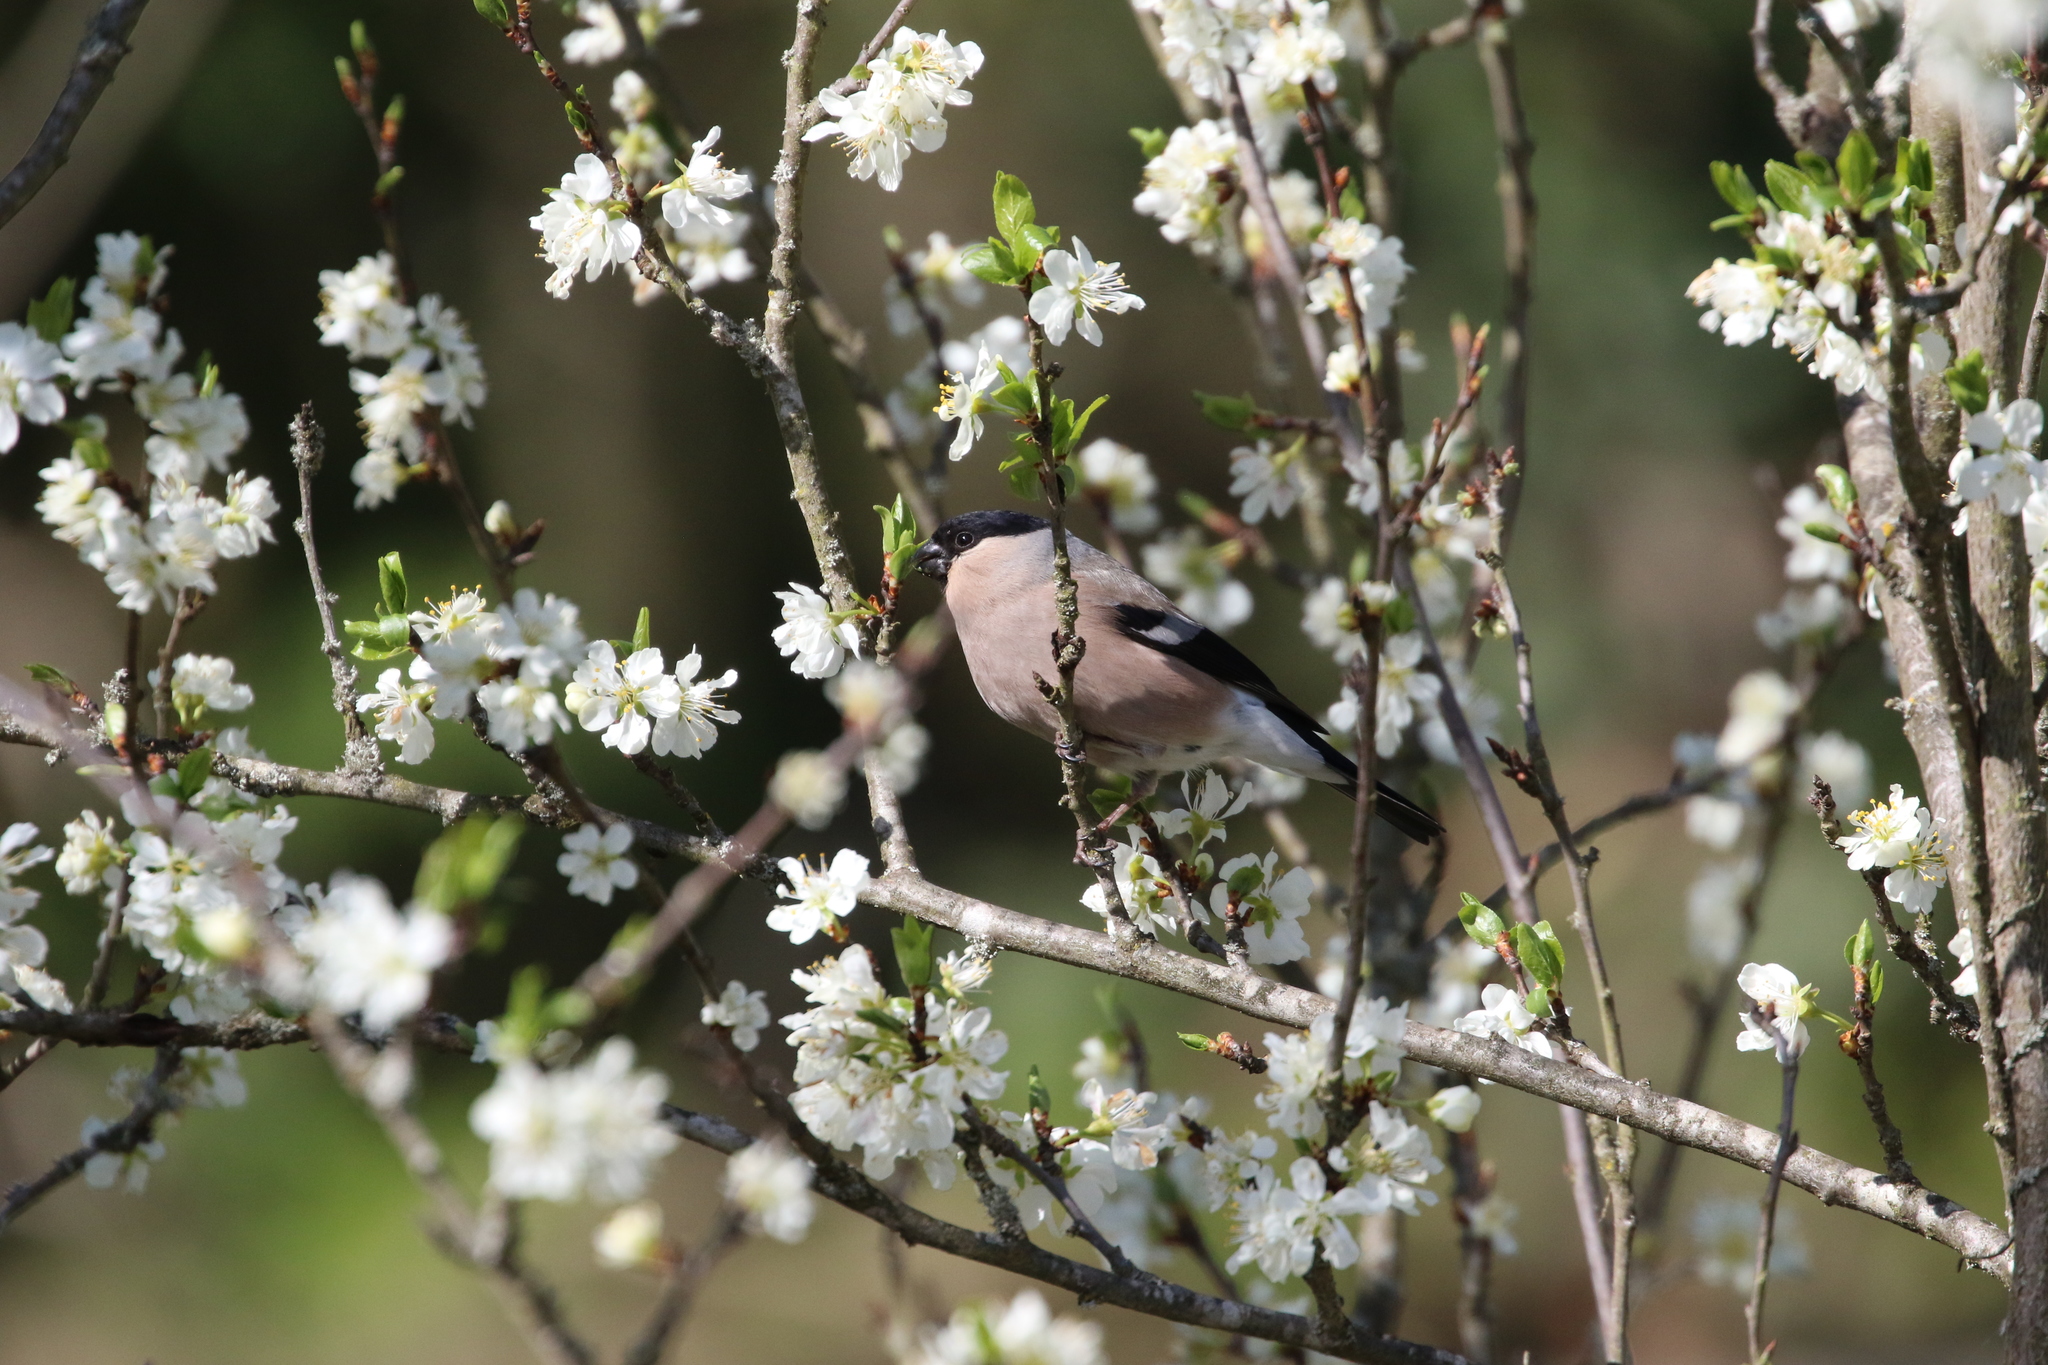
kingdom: Animalia
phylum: Chordata
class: Aves
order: Passeriformes
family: Fringillidae
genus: Pyrrhula
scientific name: Pyrrhula pyrrhula
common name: Eurasian bullfinch
